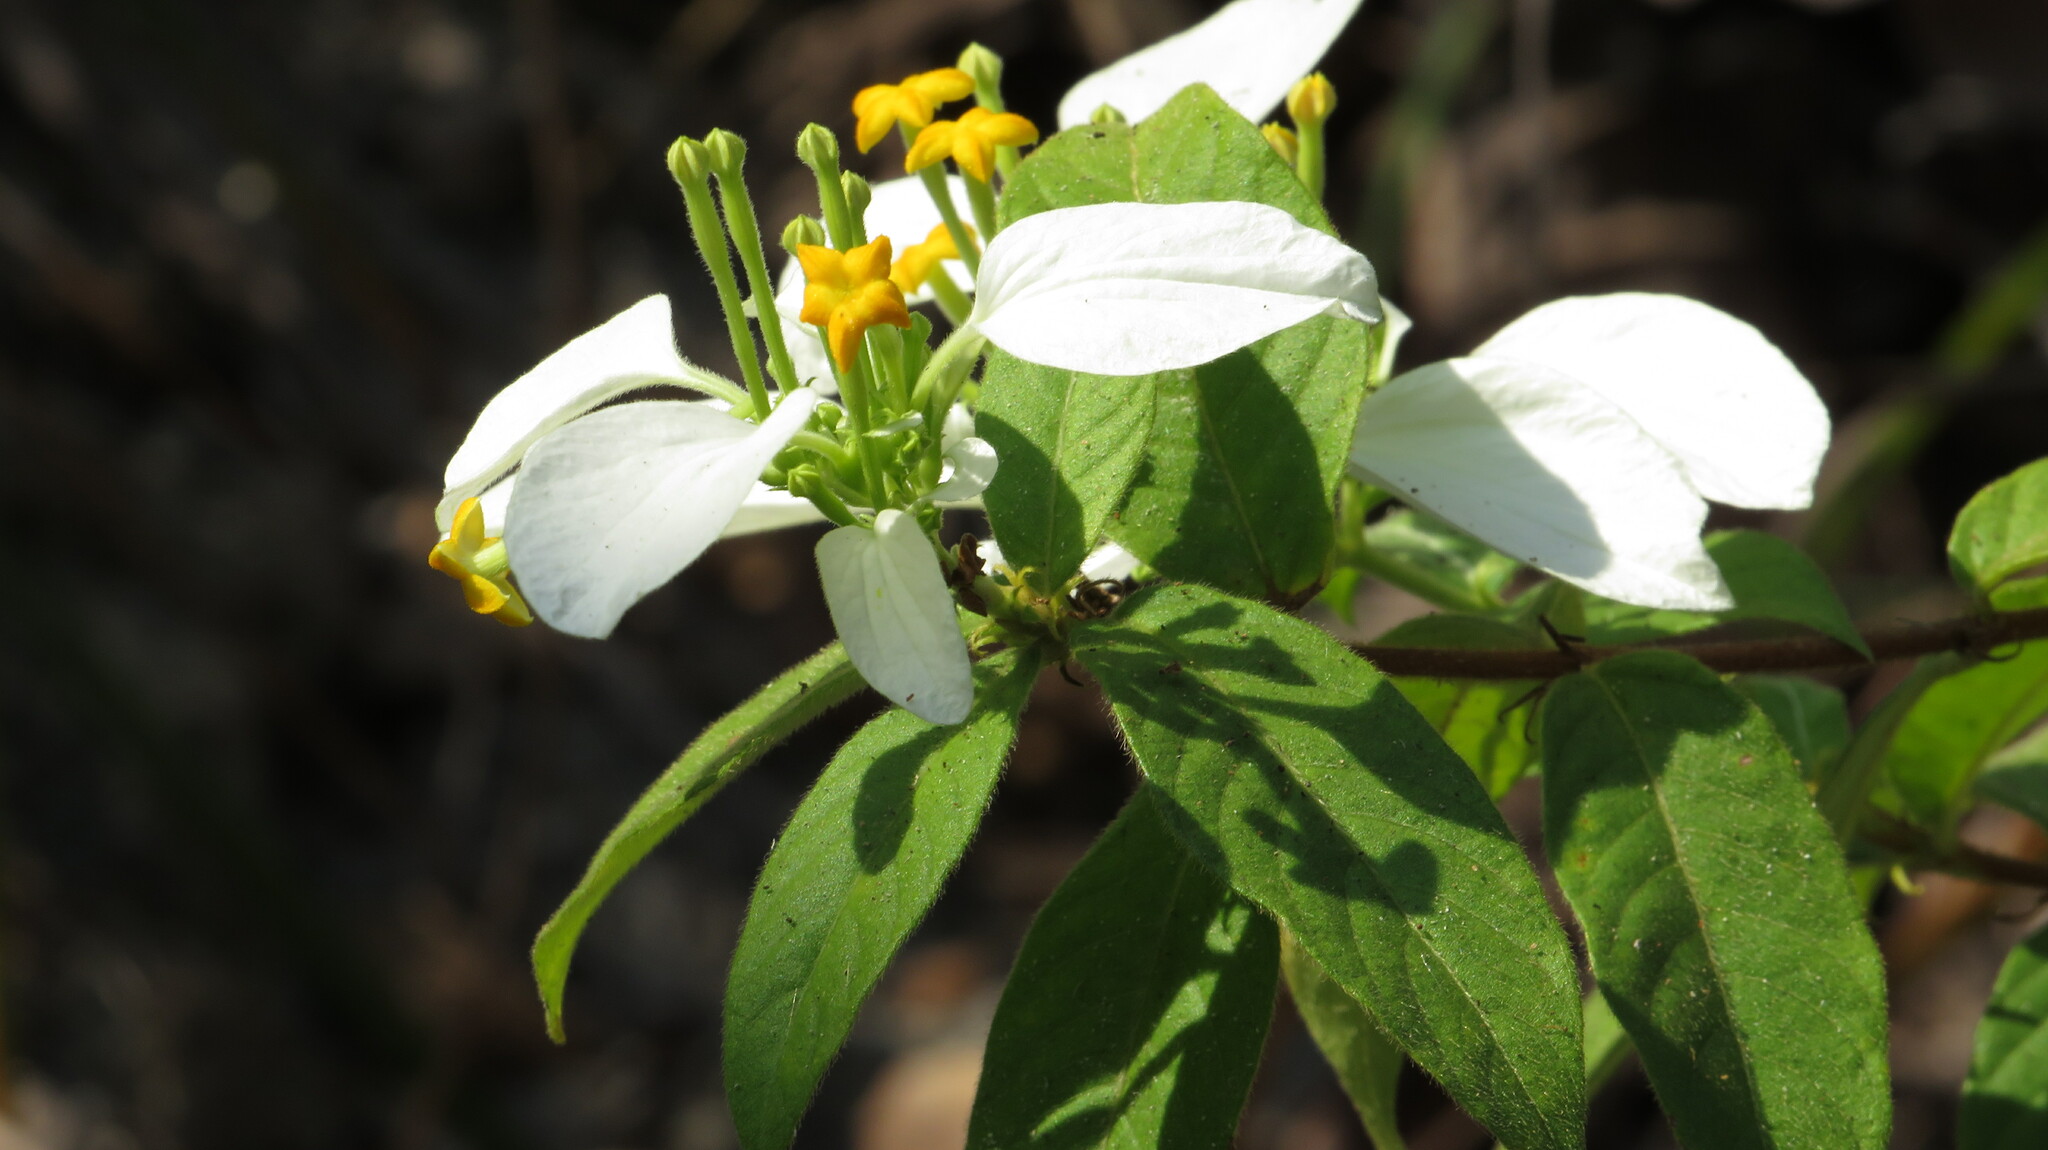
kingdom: Plantae
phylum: Tracheophyta
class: Magnoliopsida
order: Gentianales
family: Rubiaceae
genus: Mussaenda
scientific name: Mussaenda pubescens
